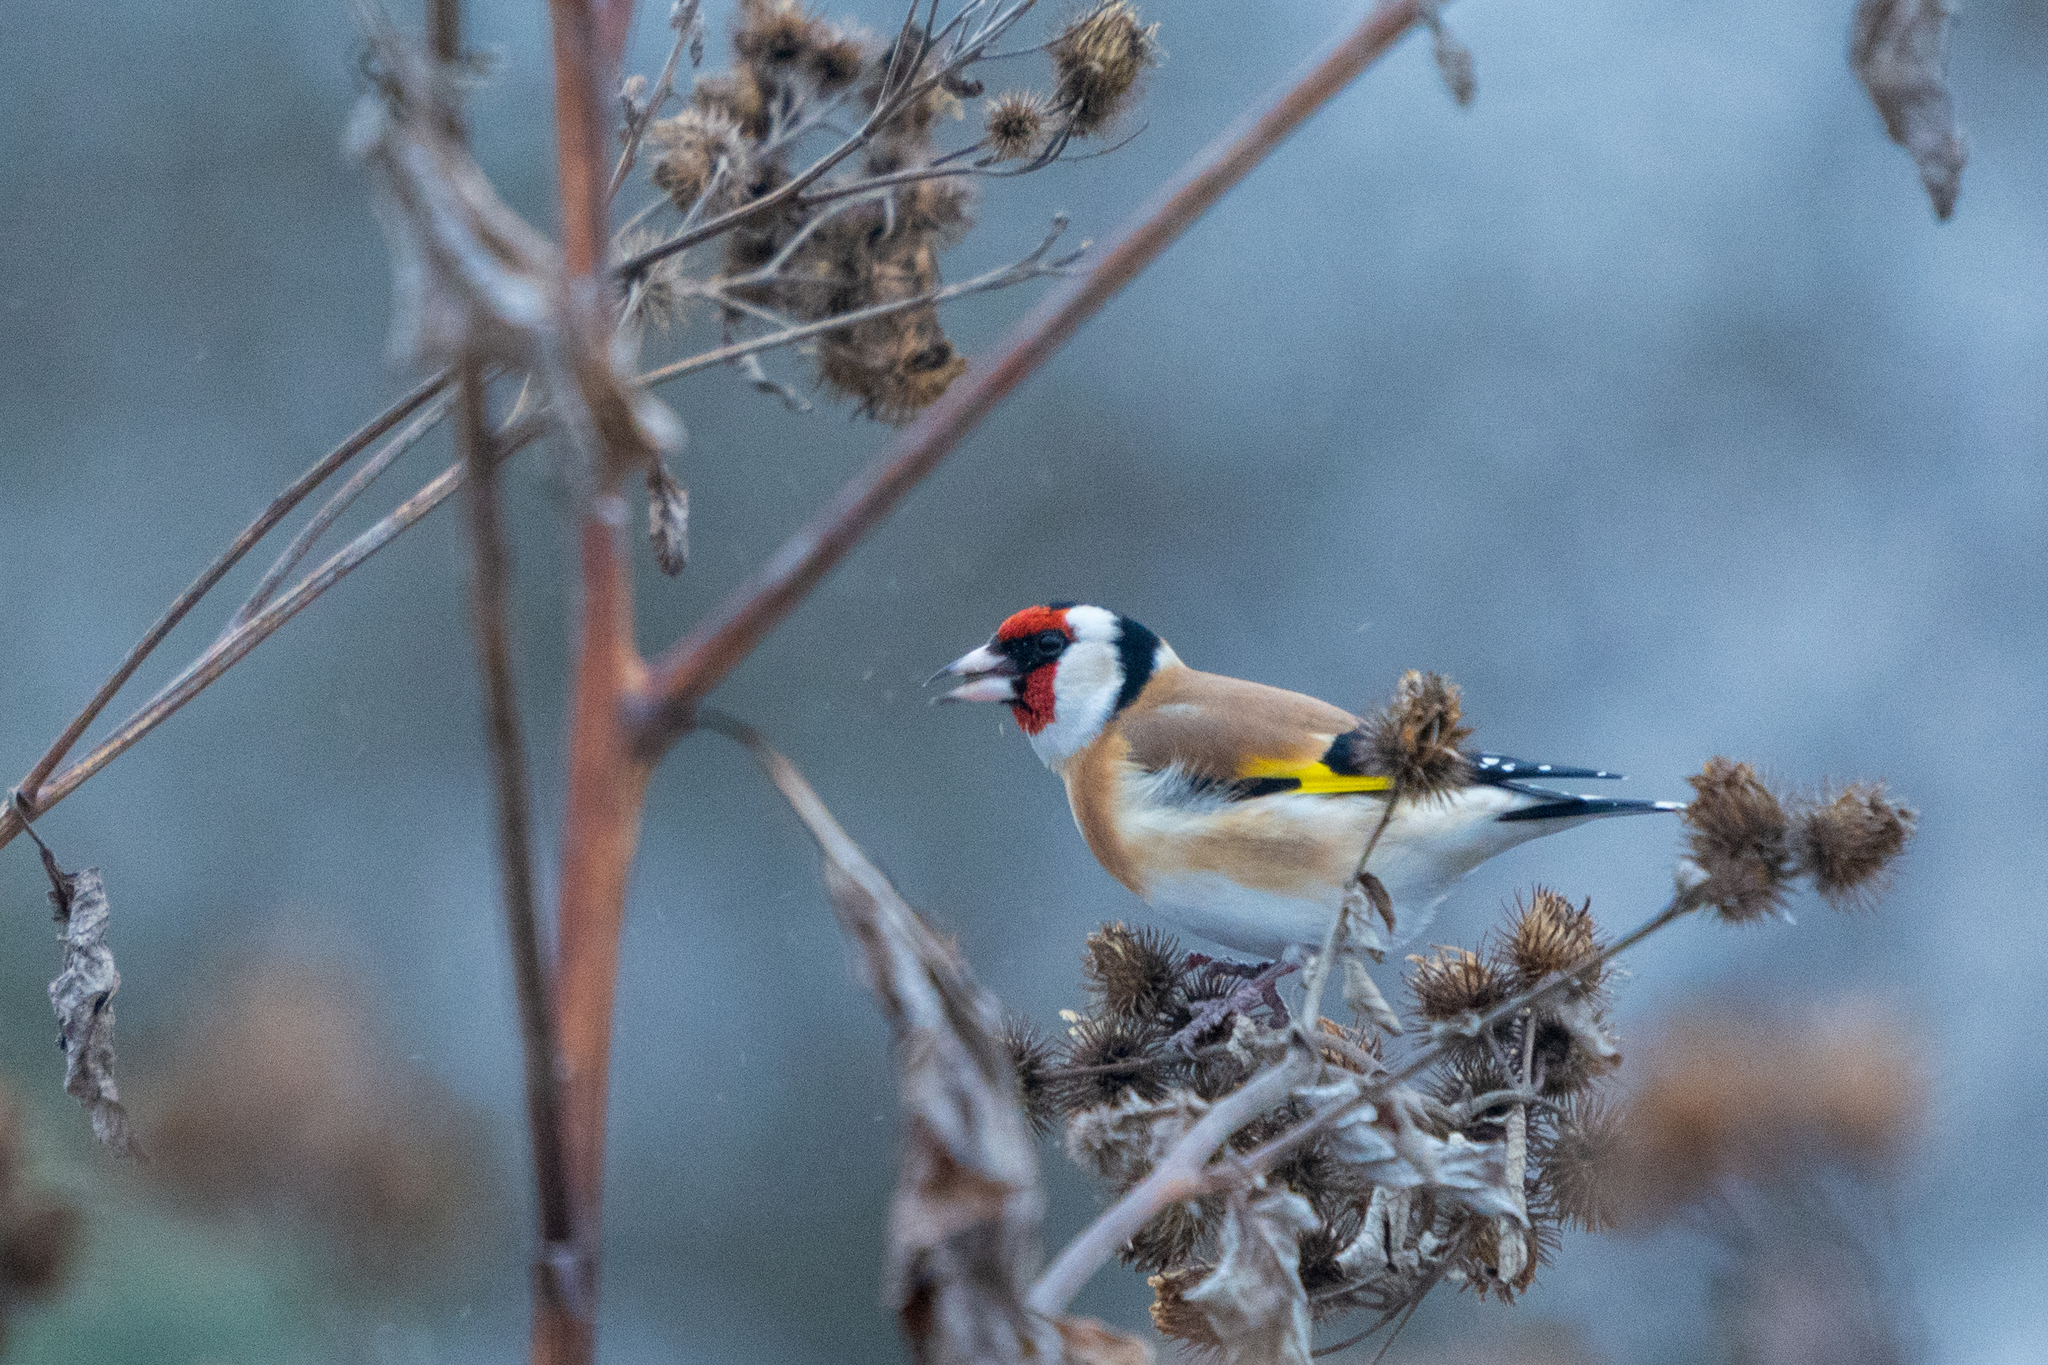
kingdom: Animalia
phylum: Chordata
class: Aves
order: Passeriformes
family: Fringillidae
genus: Carduelis
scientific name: Carduelis carduelis
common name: European goldfinch
